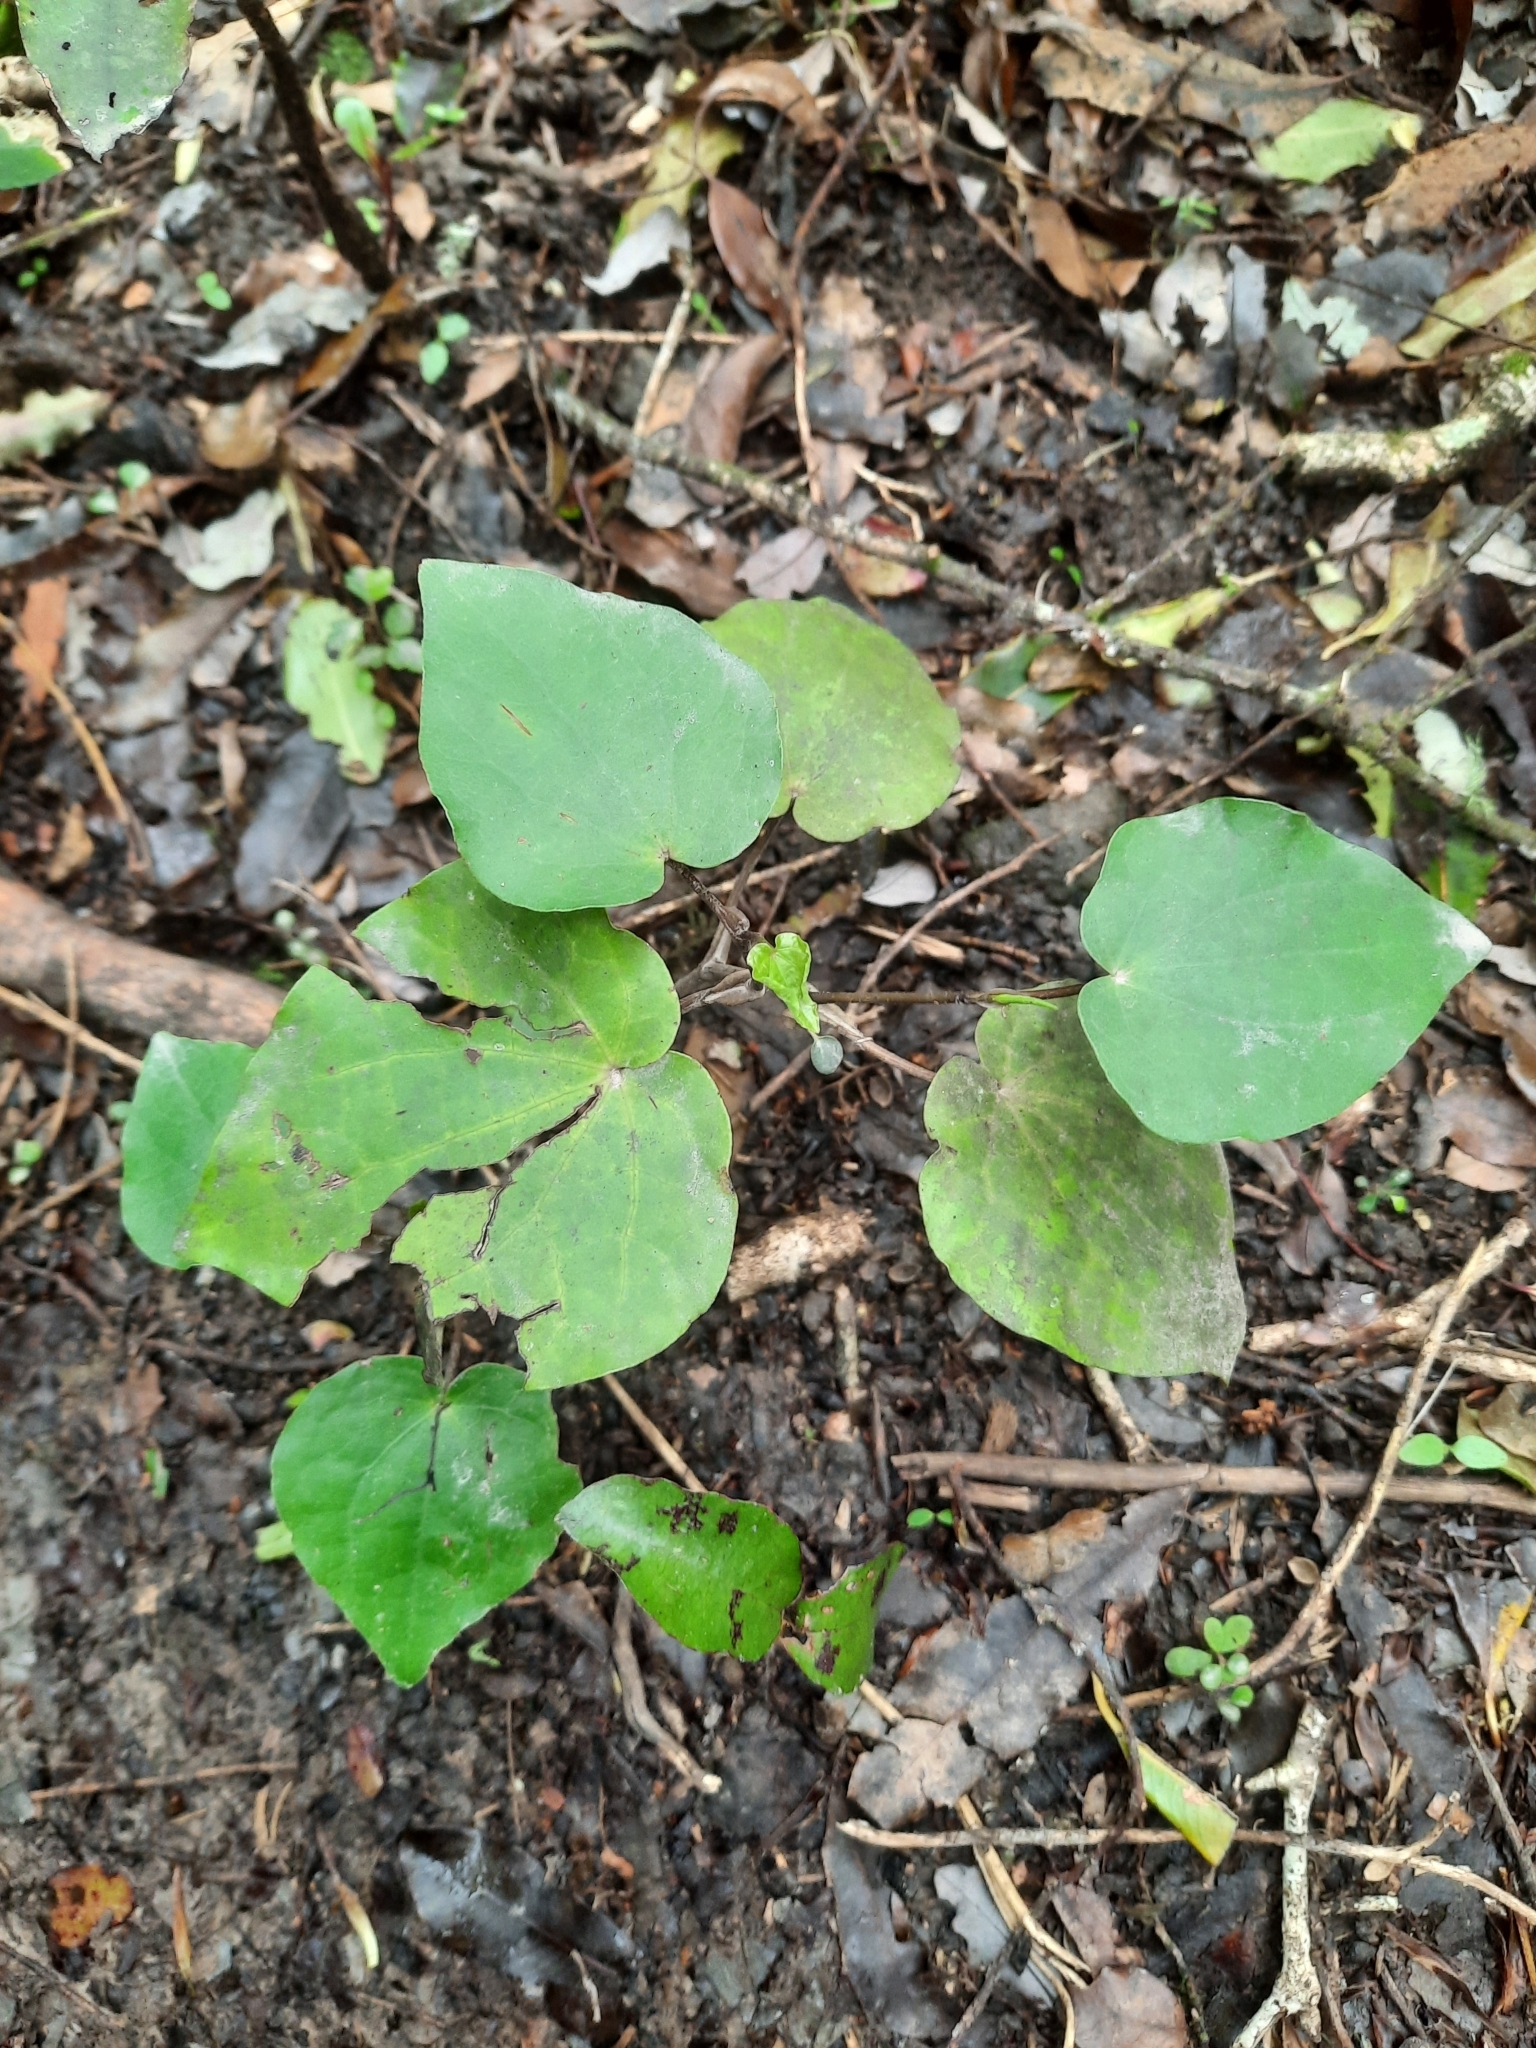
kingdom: Plantae
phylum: Tracheophyta
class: Magnoliopsida
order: Piperales
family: Piperaceae
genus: Macropiper
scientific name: Macropiper excelsum
